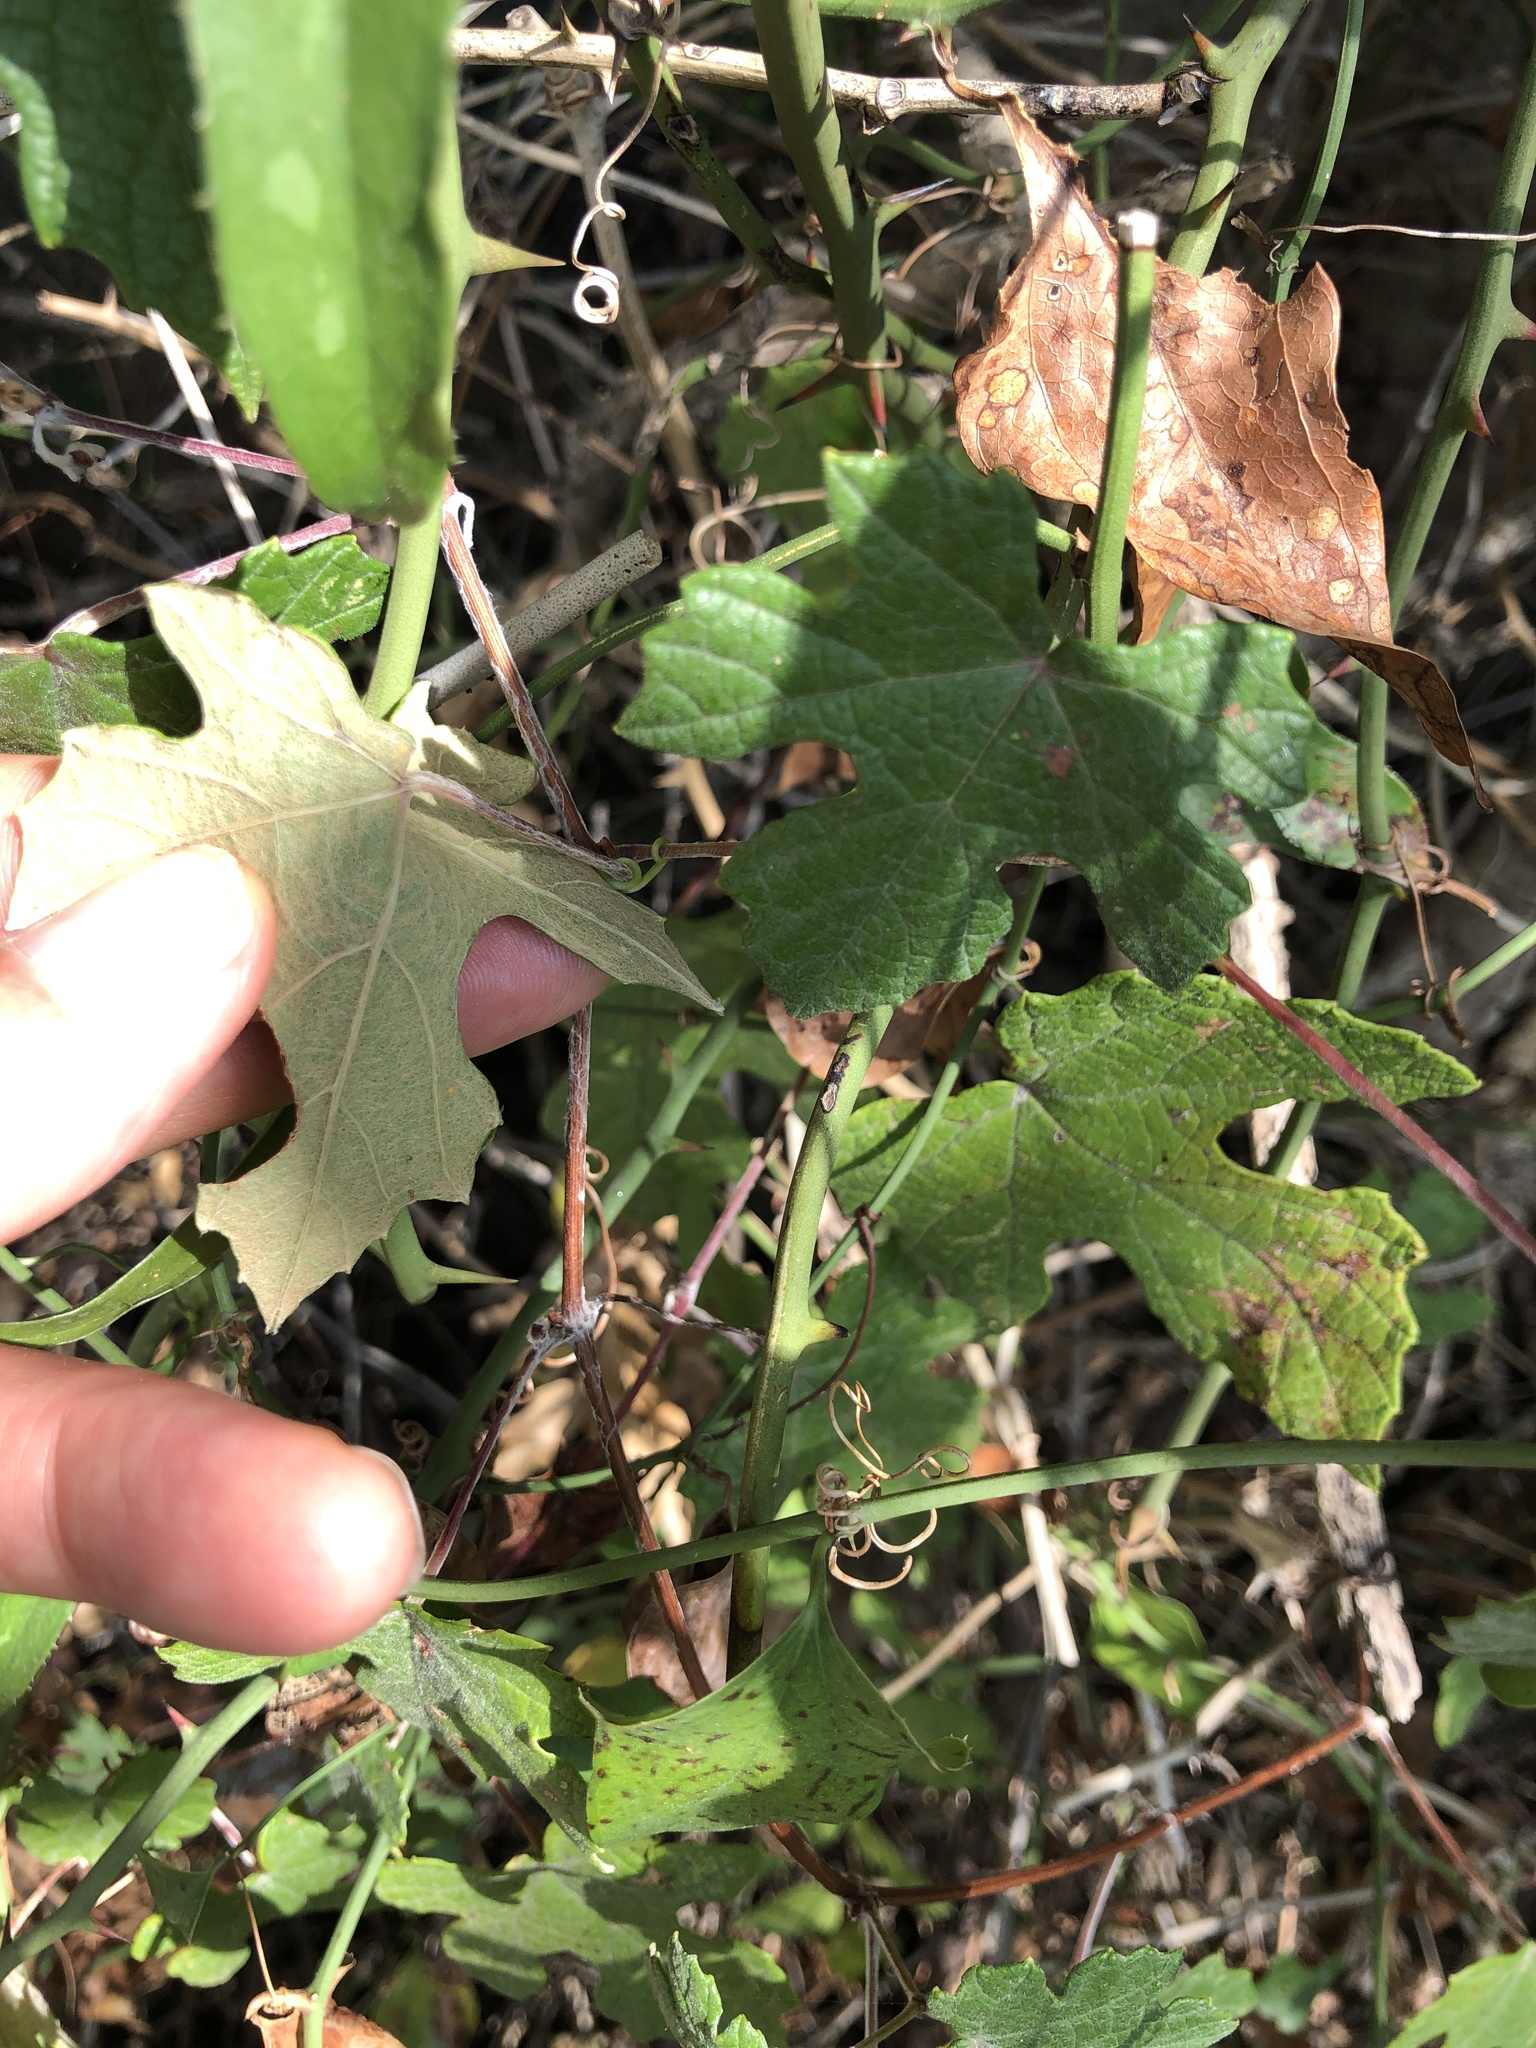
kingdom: Plantae
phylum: Tracheophyta
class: Magnoliopsida
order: Vitales
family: Vitaceae
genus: Vitis
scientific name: Vitis mustangensis
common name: Mustang grape
